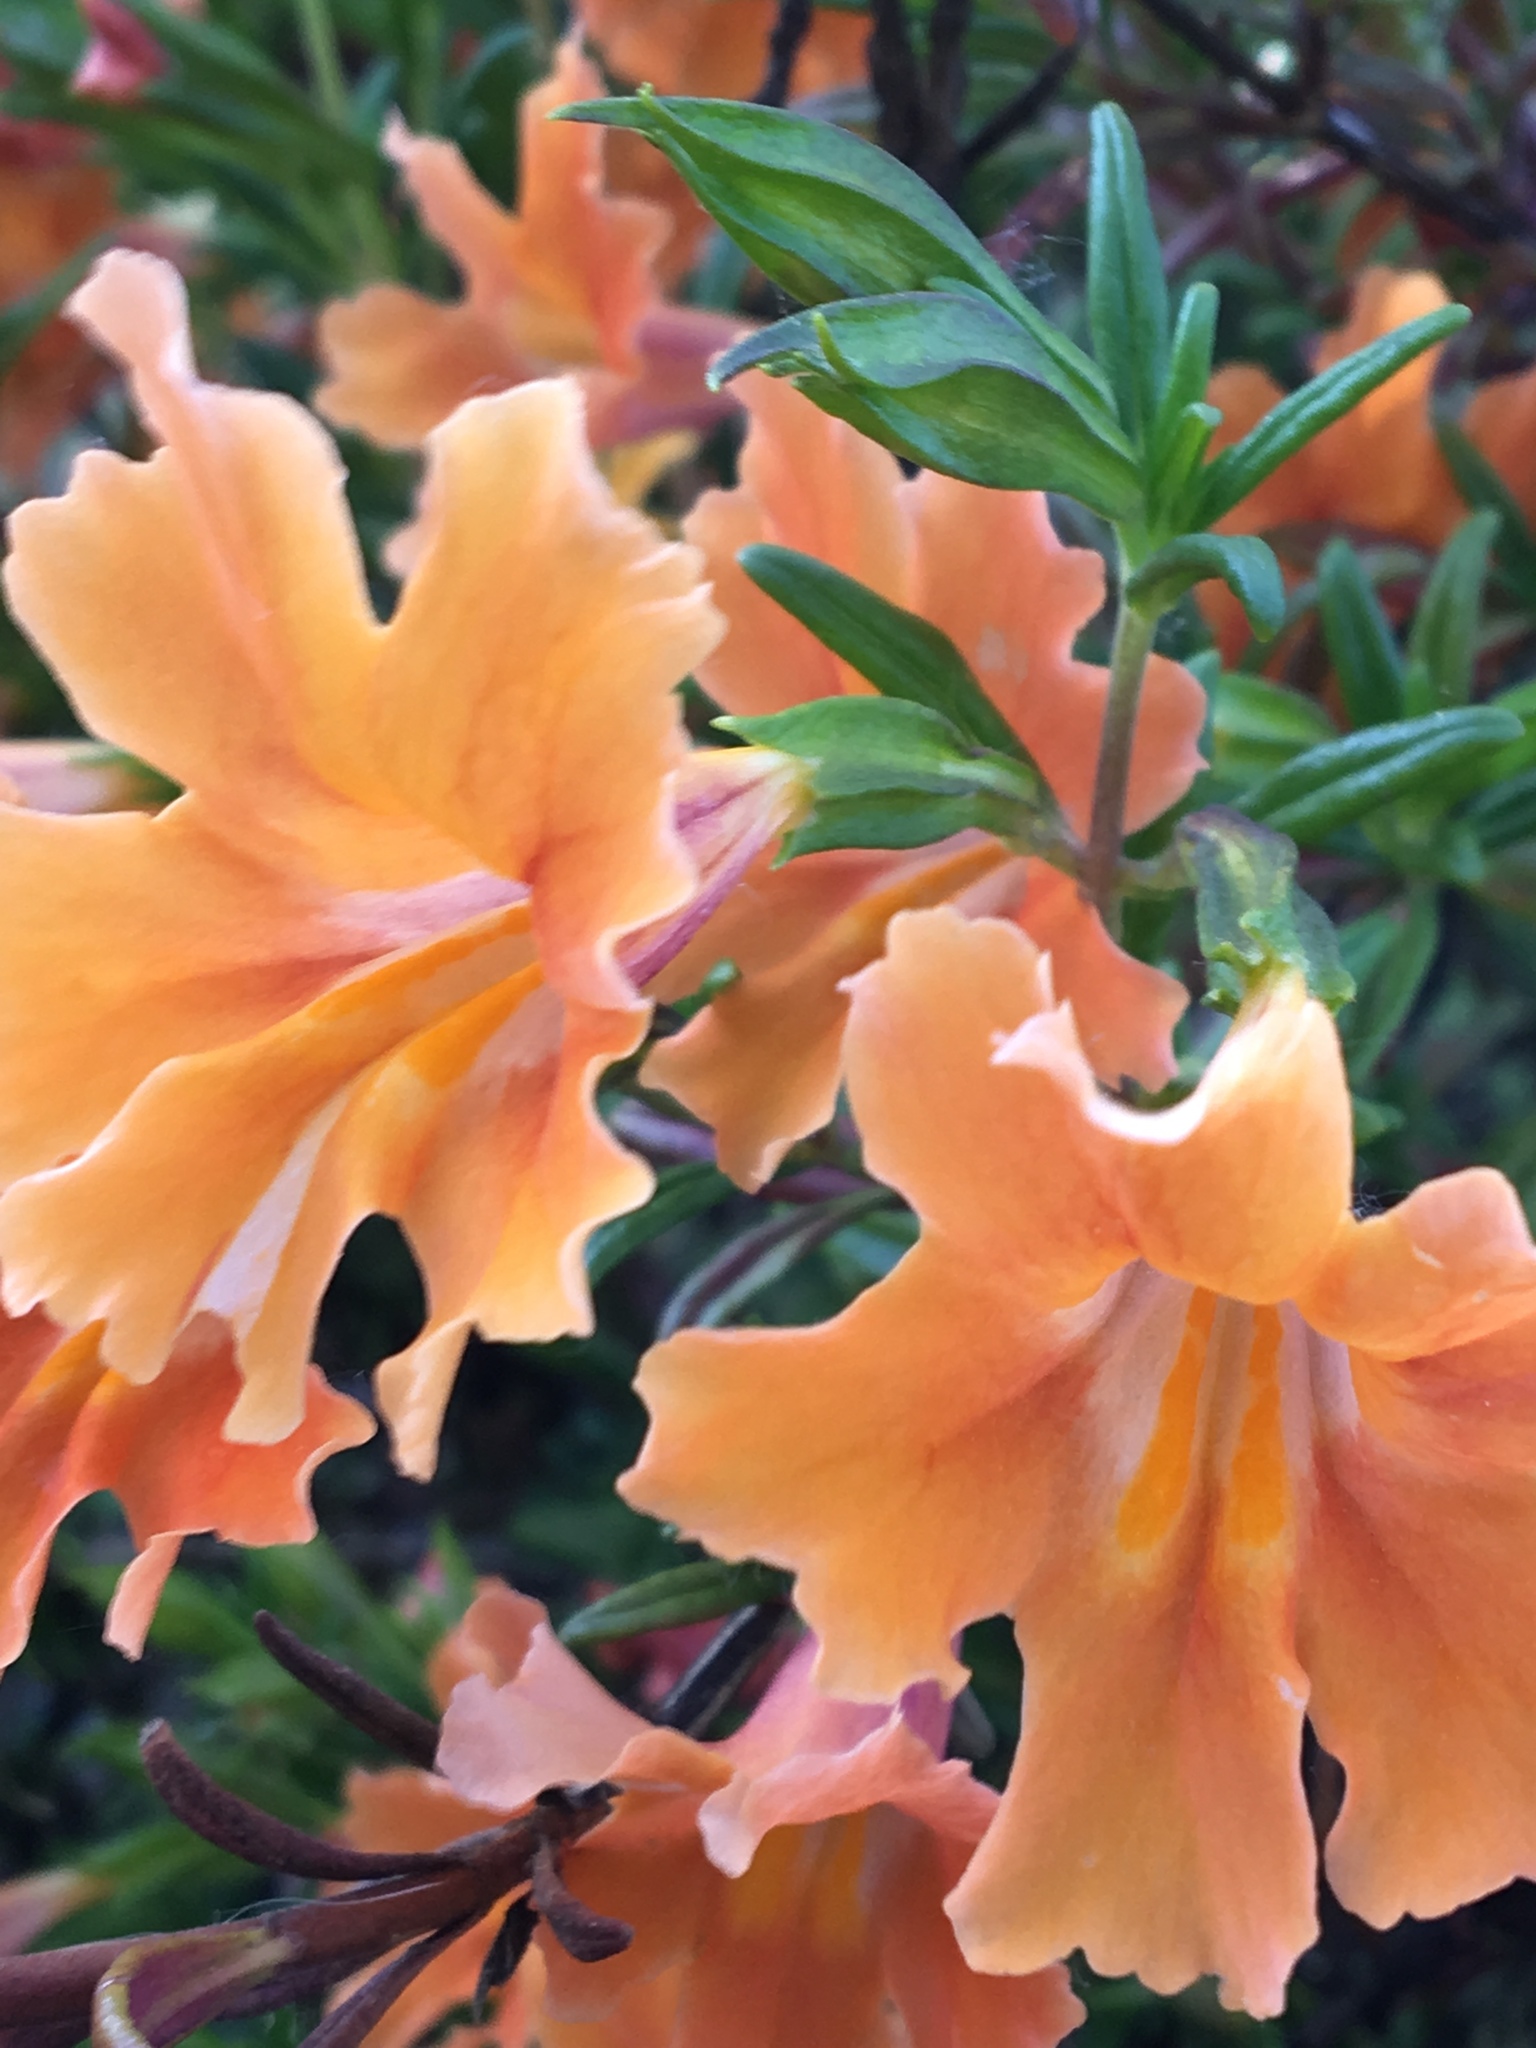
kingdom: Plantae
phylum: Tracheophyta
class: Magnoliopsida
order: Lamiales
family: Phrymaceae
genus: Diplacus
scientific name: Diplacus aurantiacus
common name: Bush monkey-flower
